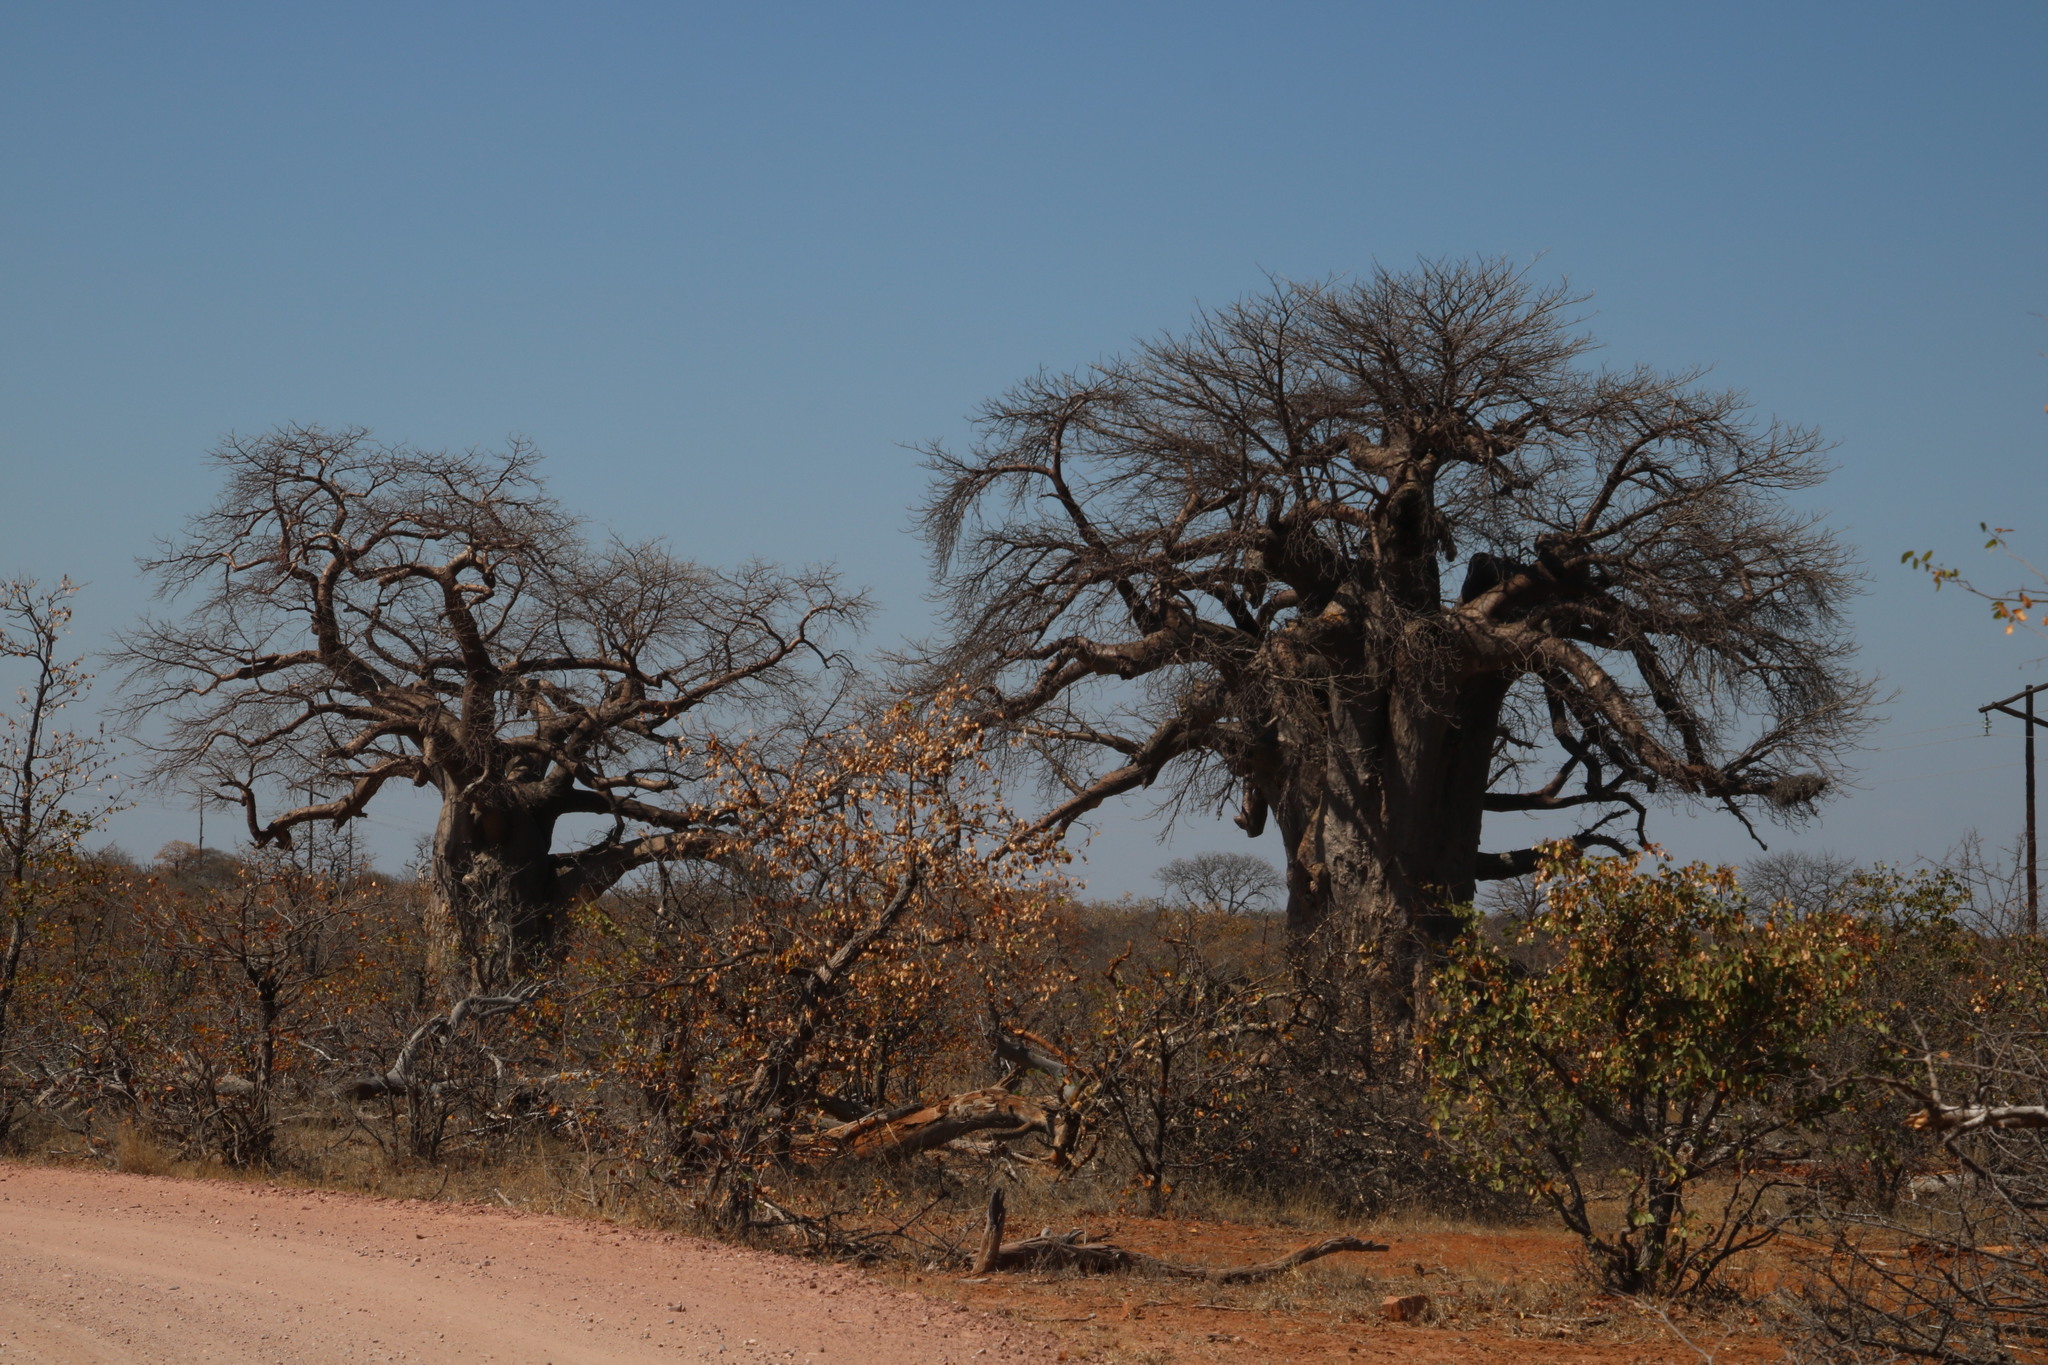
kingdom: Plantae
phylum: Tracheophyta
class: Magnoliopsida
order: Malvales
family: Malvaceae
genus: Adansonia
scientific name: Adansonia digitata
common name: Dead-rat-tree
